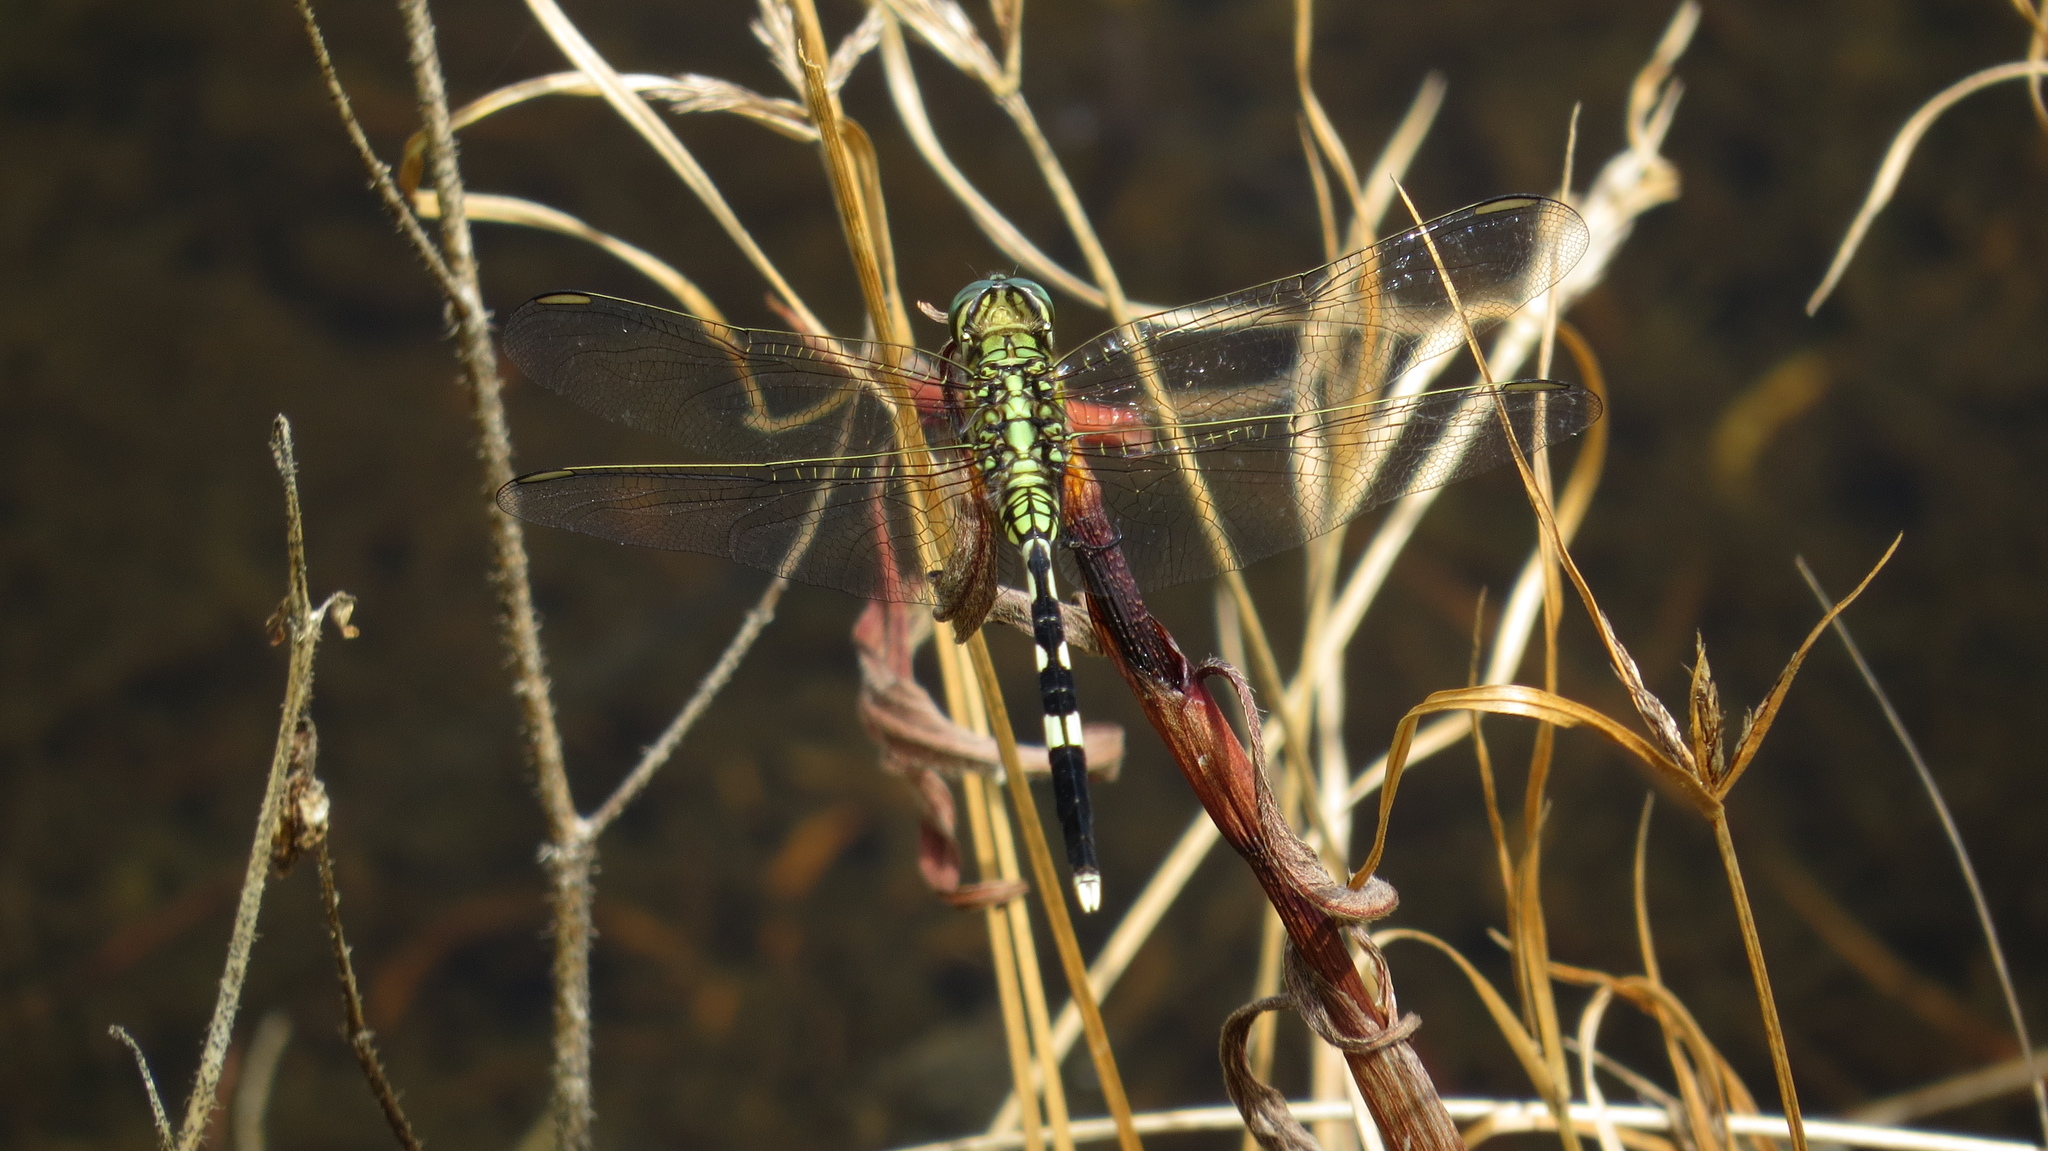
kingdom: Animalia
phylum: Arthropoda
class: Insecta
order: Odonata
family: Libellulidae
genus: Orthetrum
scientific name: Orthetrum sabina
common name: Slender skimmer
